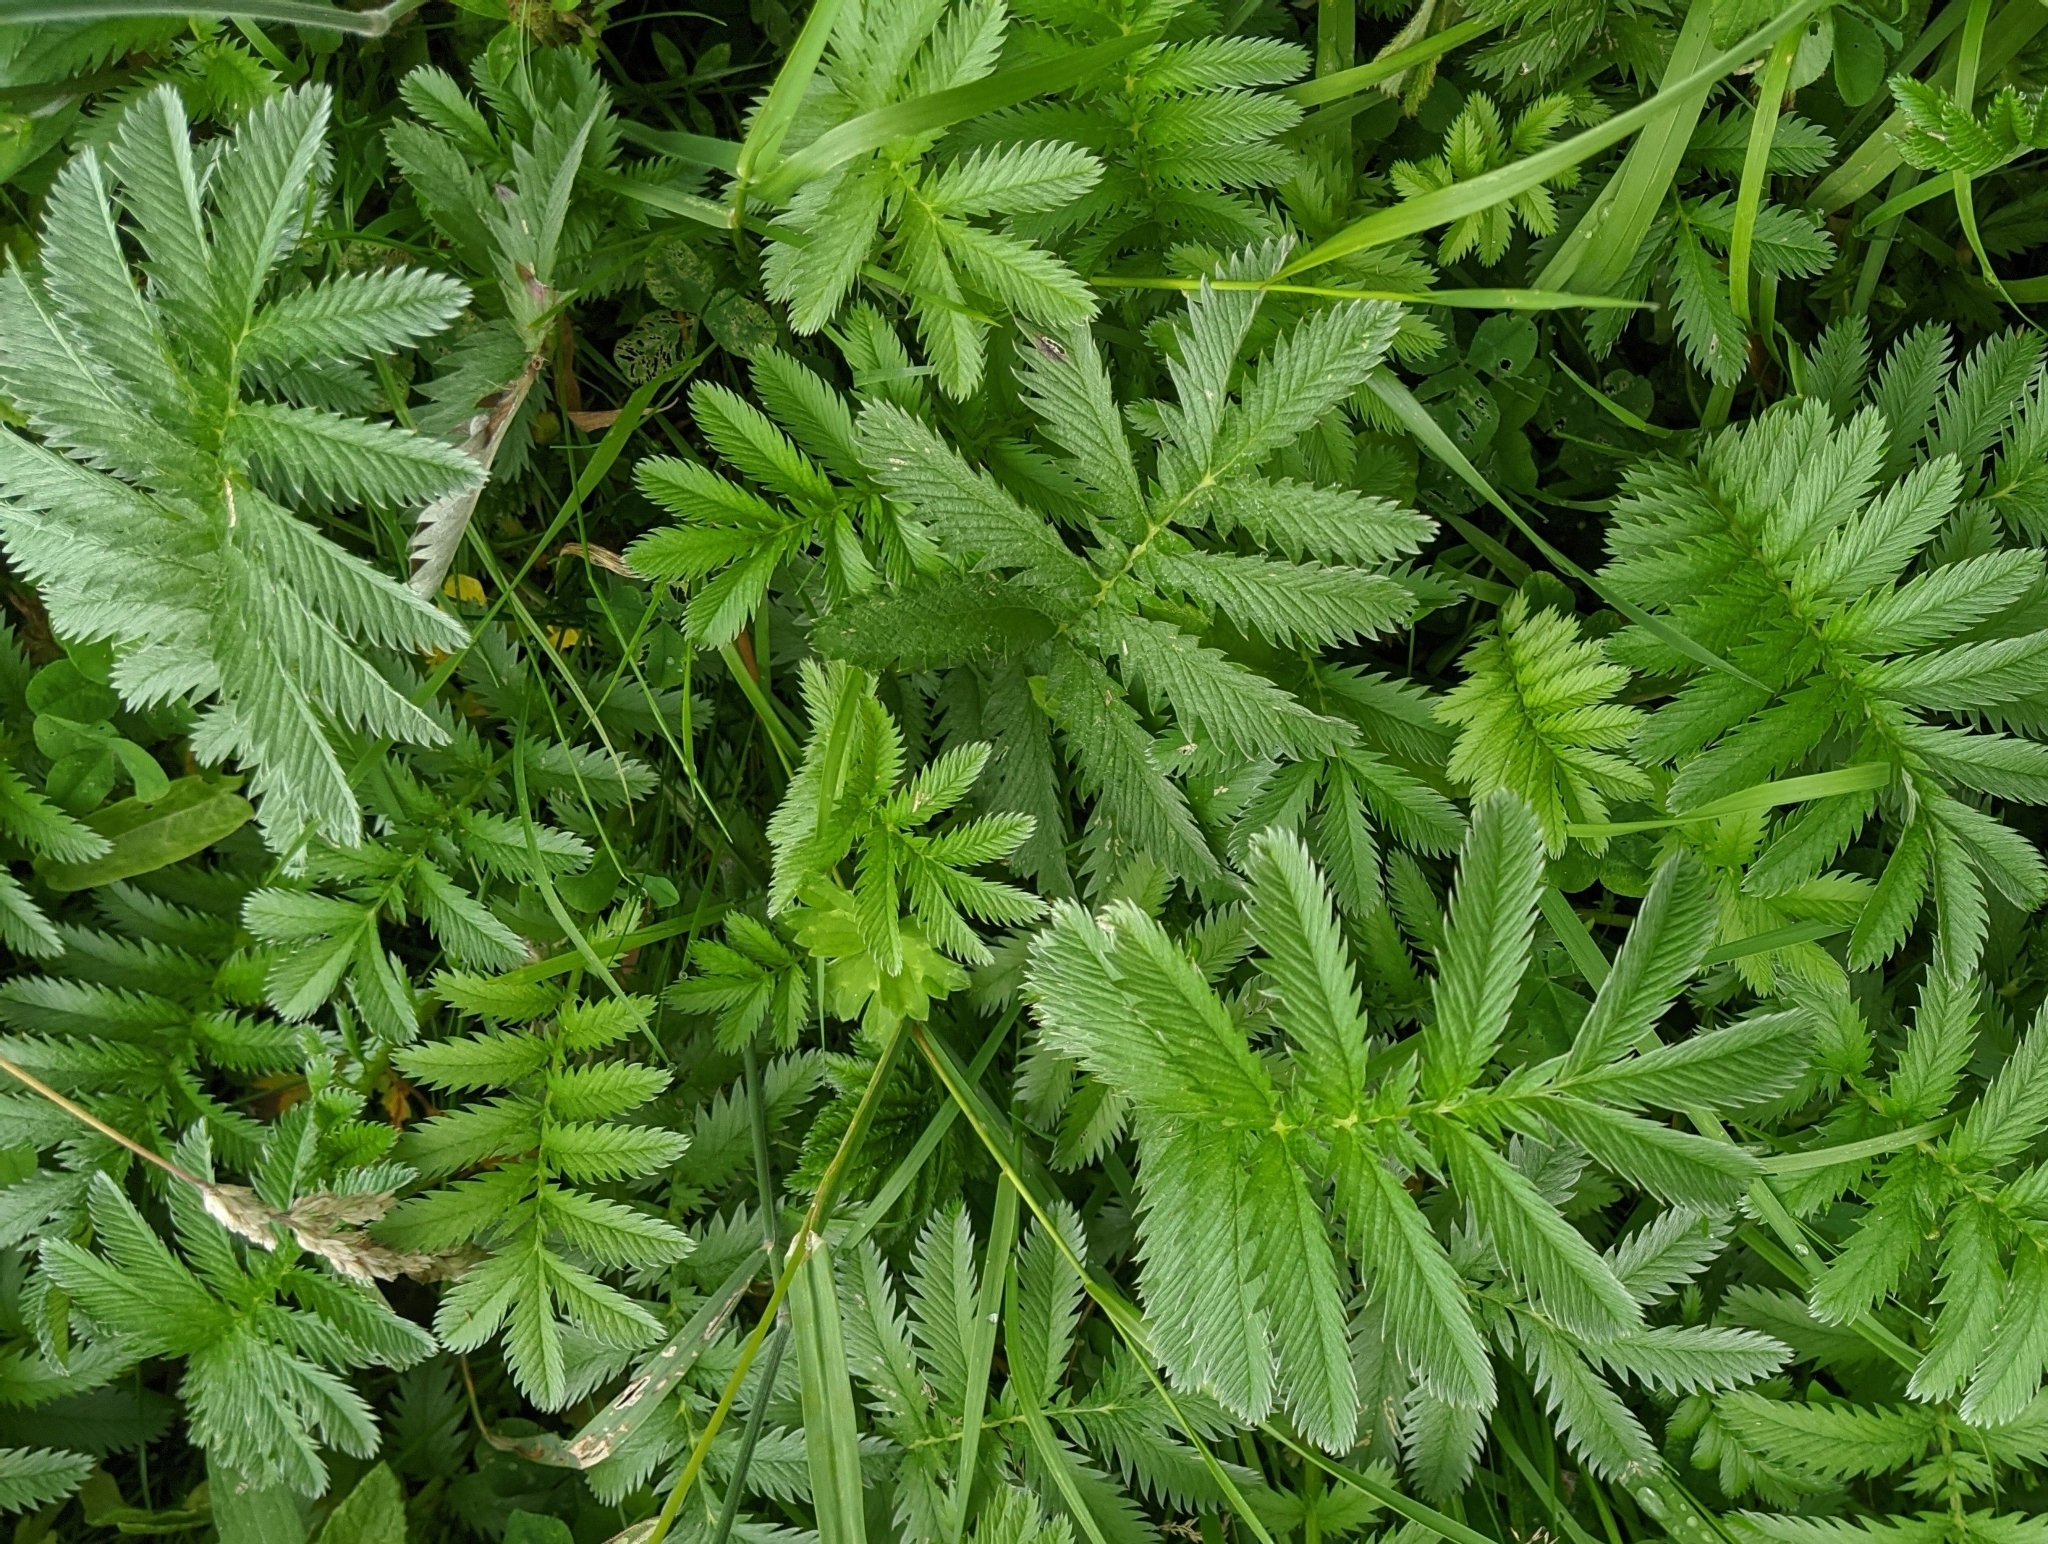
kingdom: Plantae
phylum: Tracheophyta
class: Magnoliopsida
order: Rosales
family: Rosaceae
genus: Argentina
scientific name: Argentina anserina
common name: Common silverweed
